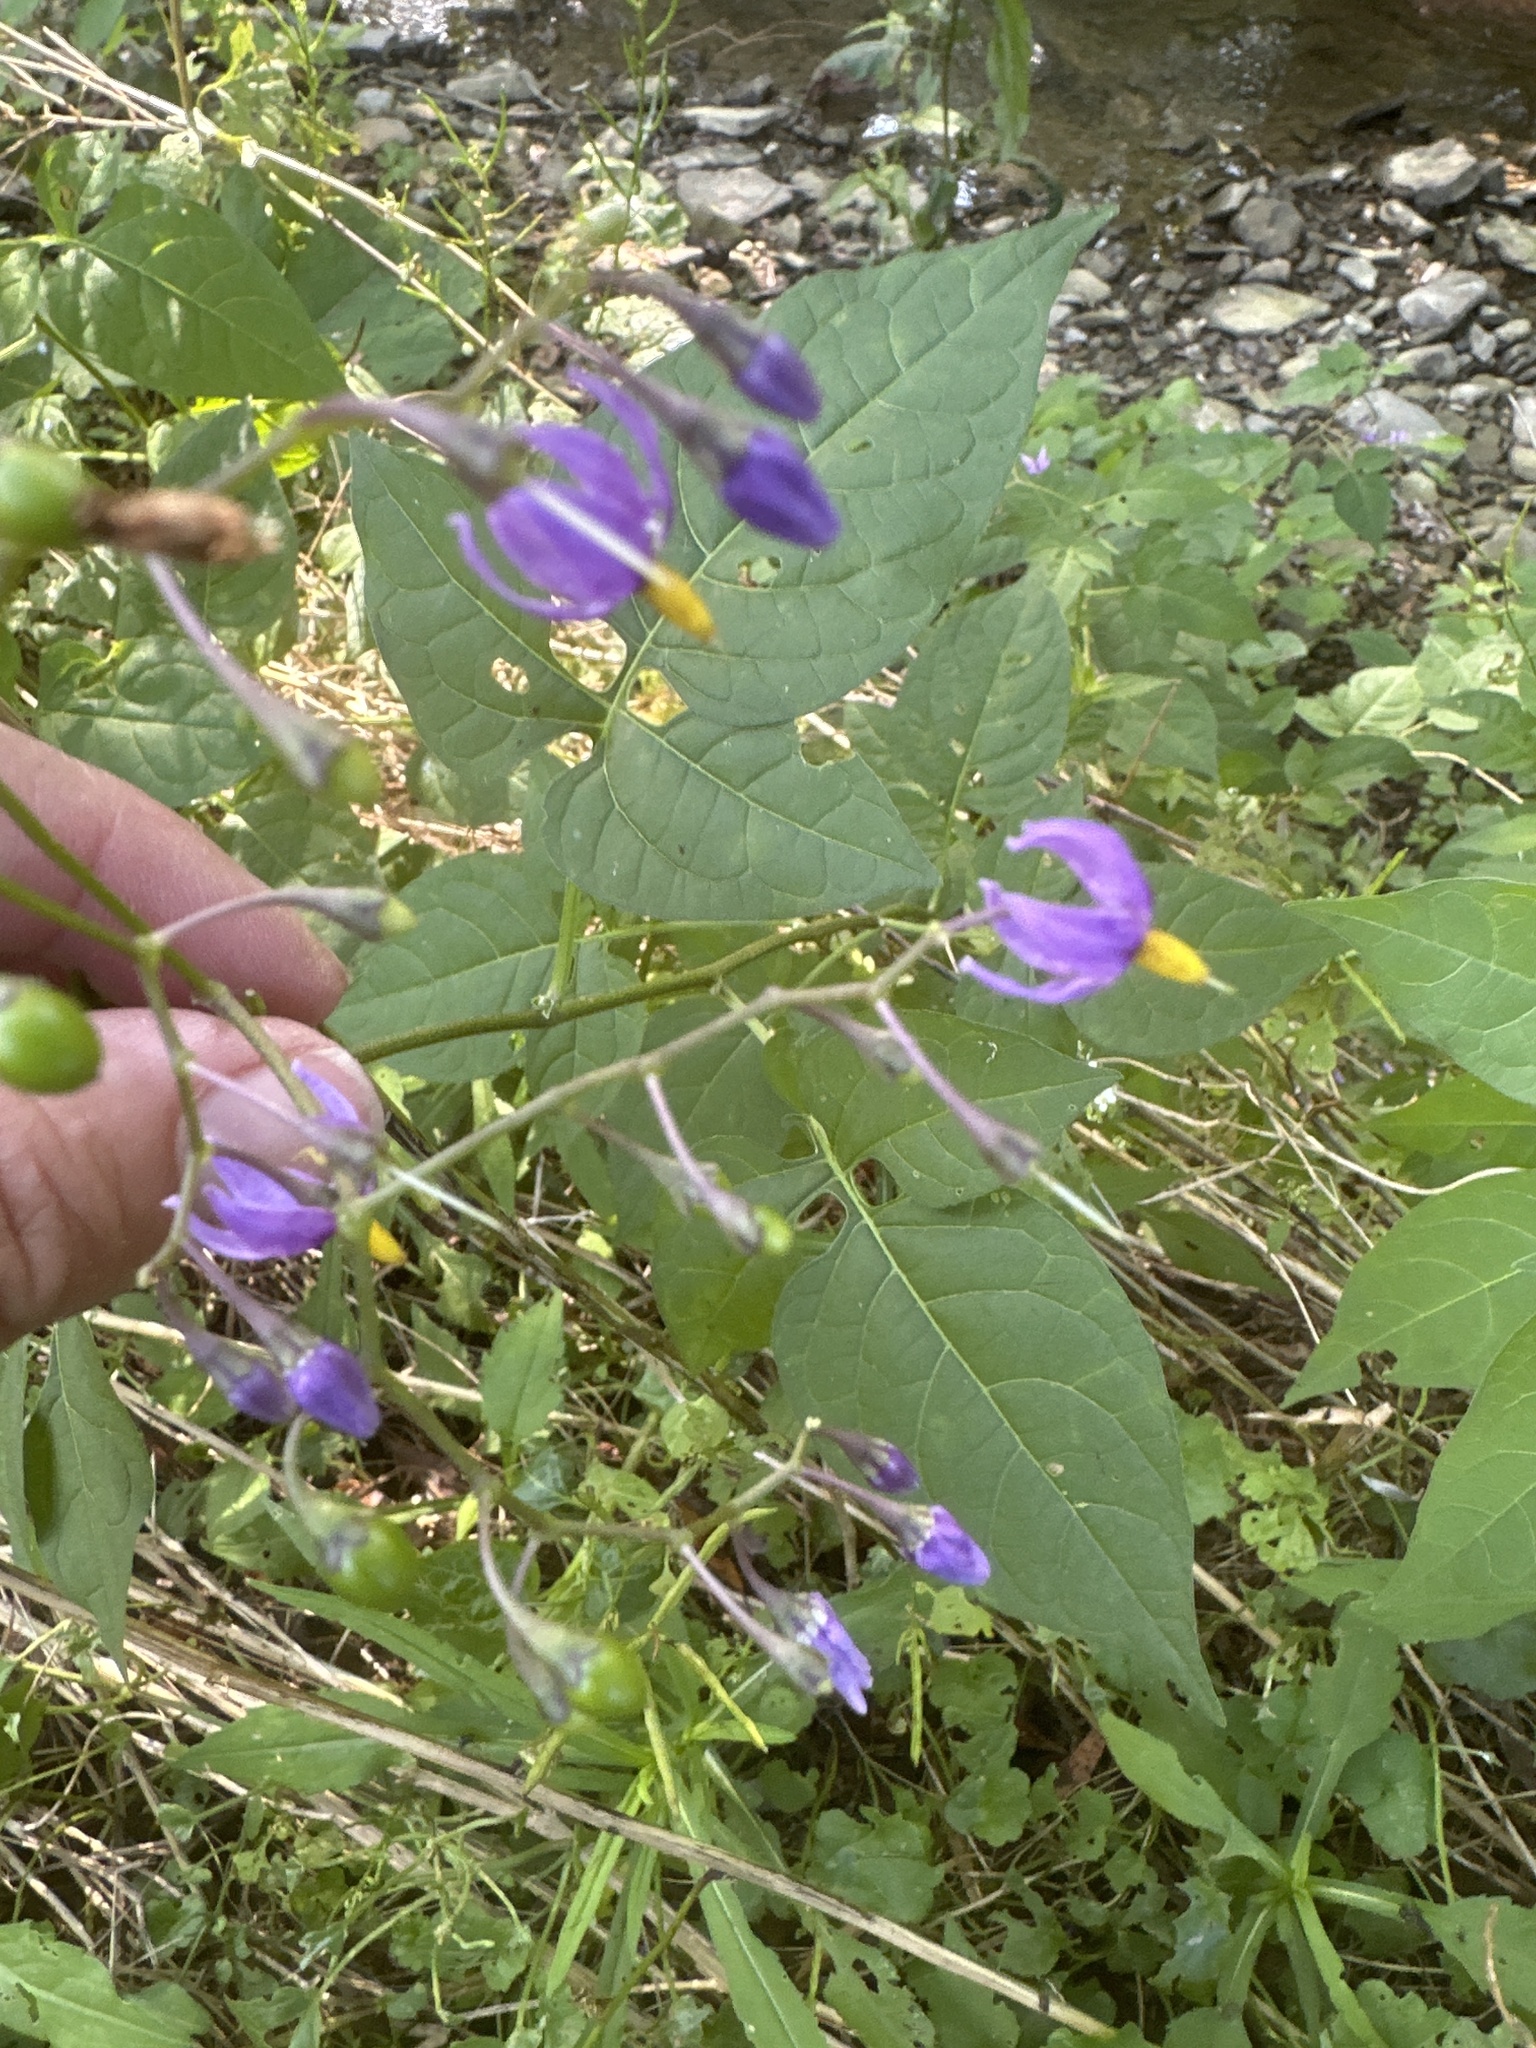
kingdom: Plantae
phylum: Tracheophyta
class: Magnoliopsida
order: Solanales
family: Solanaceae
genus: Solanum
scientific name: Solanum dulcamara
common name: Climbing nightshade
